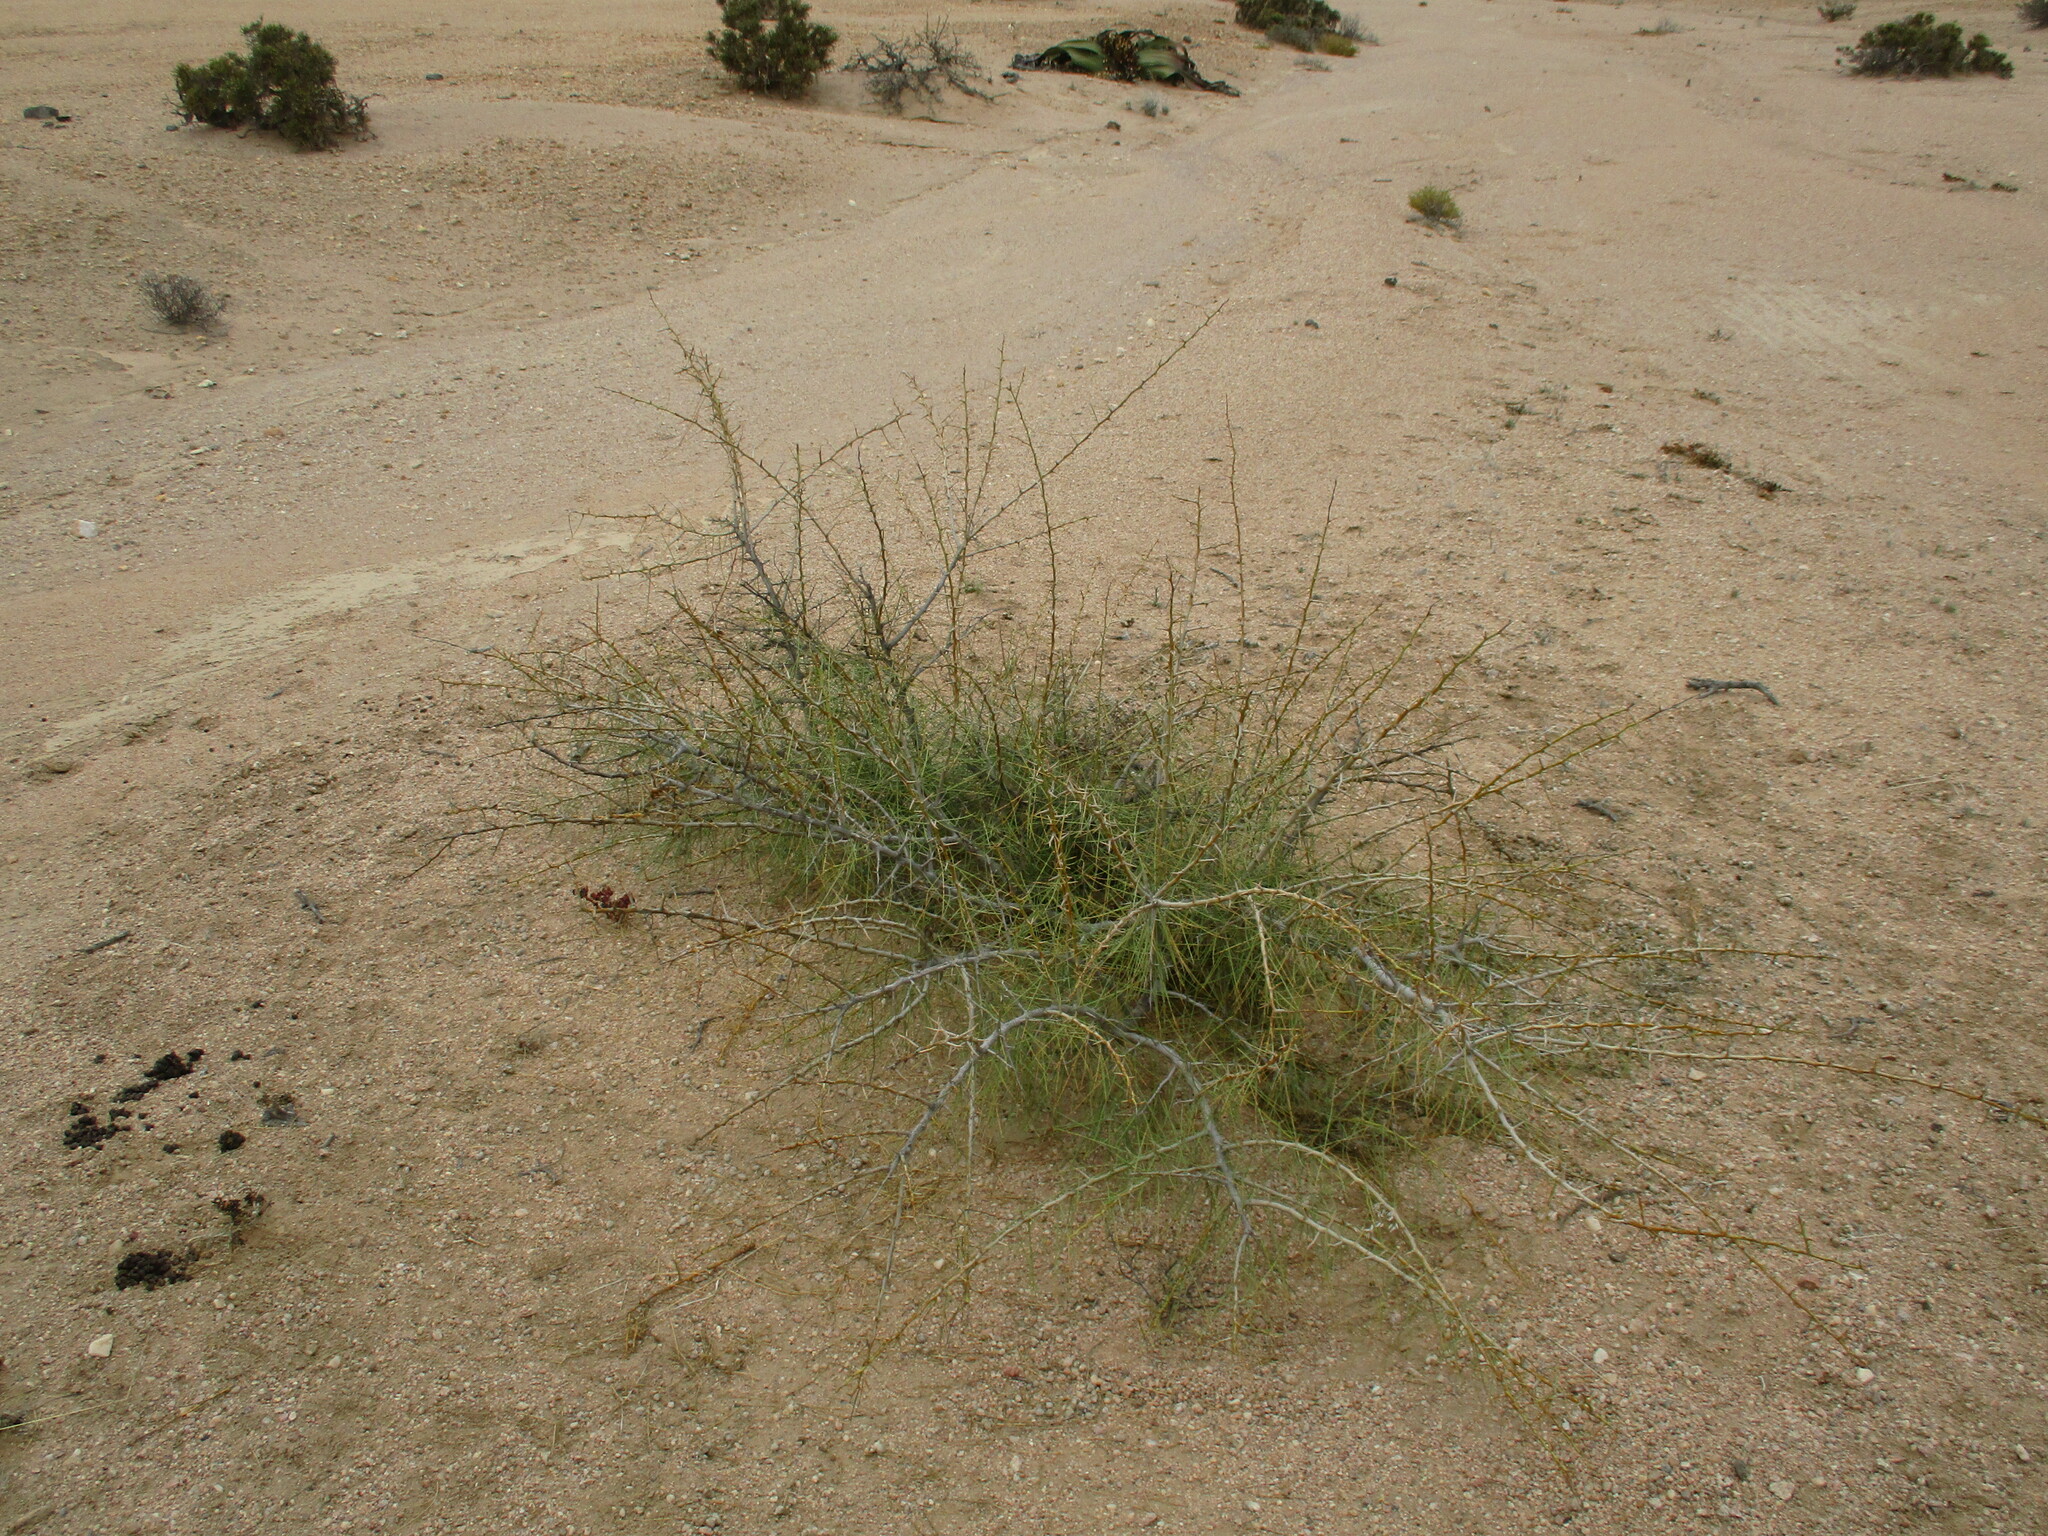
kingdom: Plantae
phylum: Tracheophyta
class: Magnoliopsida
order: Fabales
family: Fabaceae
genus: Parkinsonia
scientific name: Parkinsonia africana
